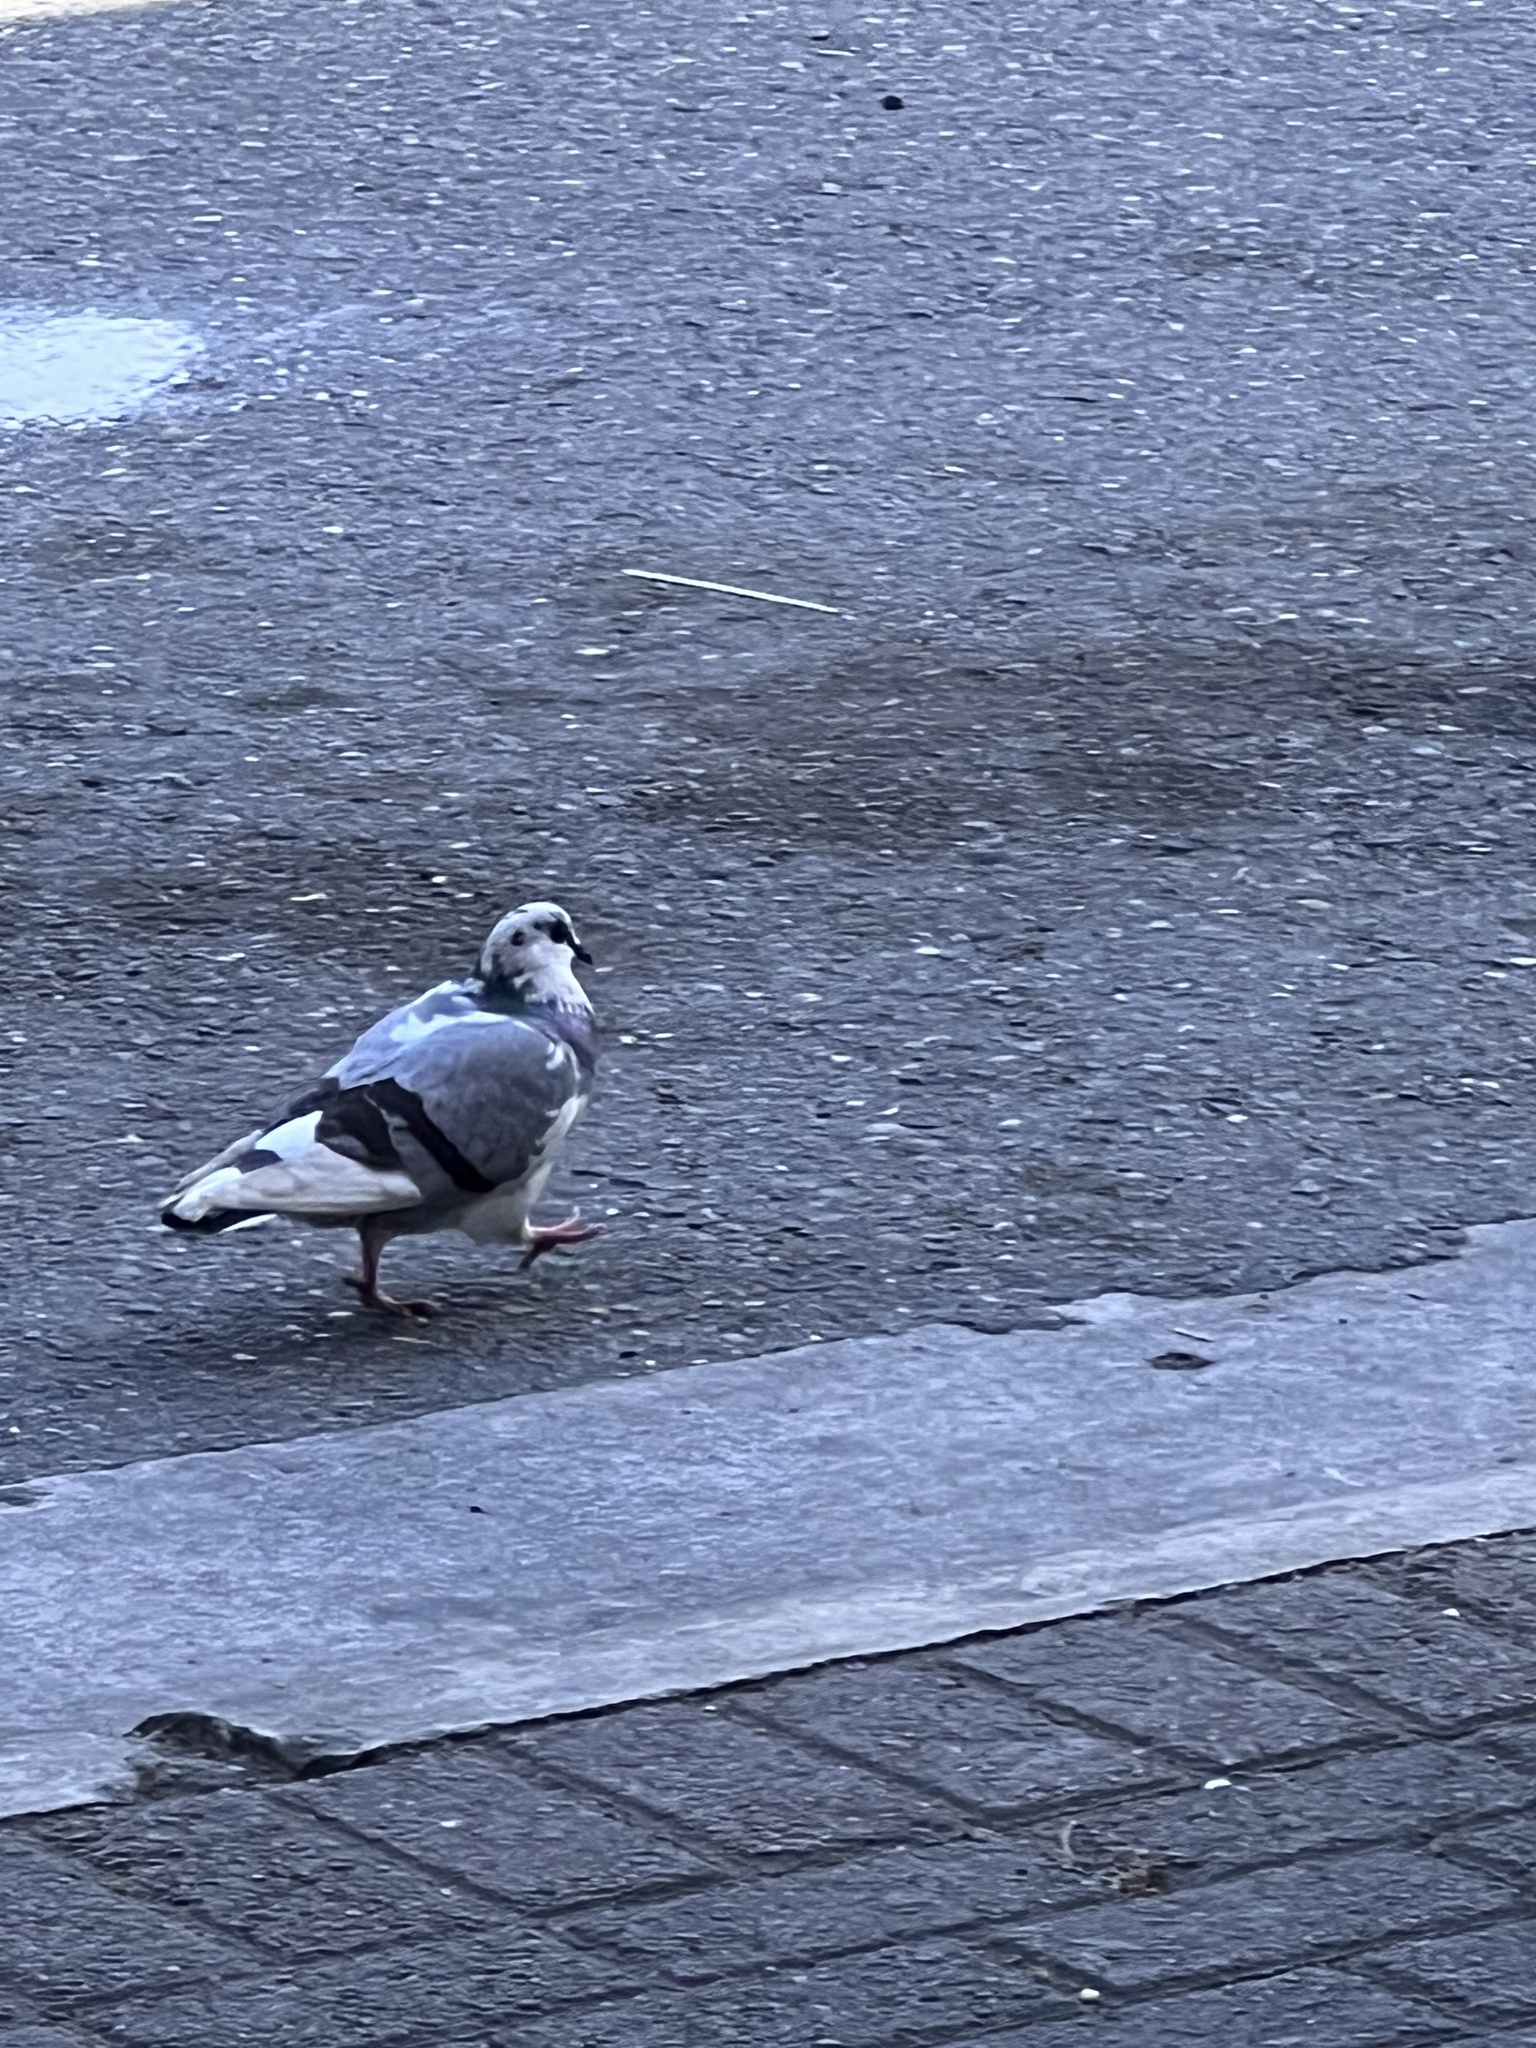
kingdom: Animalia
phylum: Chordata
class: Aves
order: Columbiformes
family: Columbidae
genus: Columba
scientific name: Columba livia
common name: Rock pigeon
